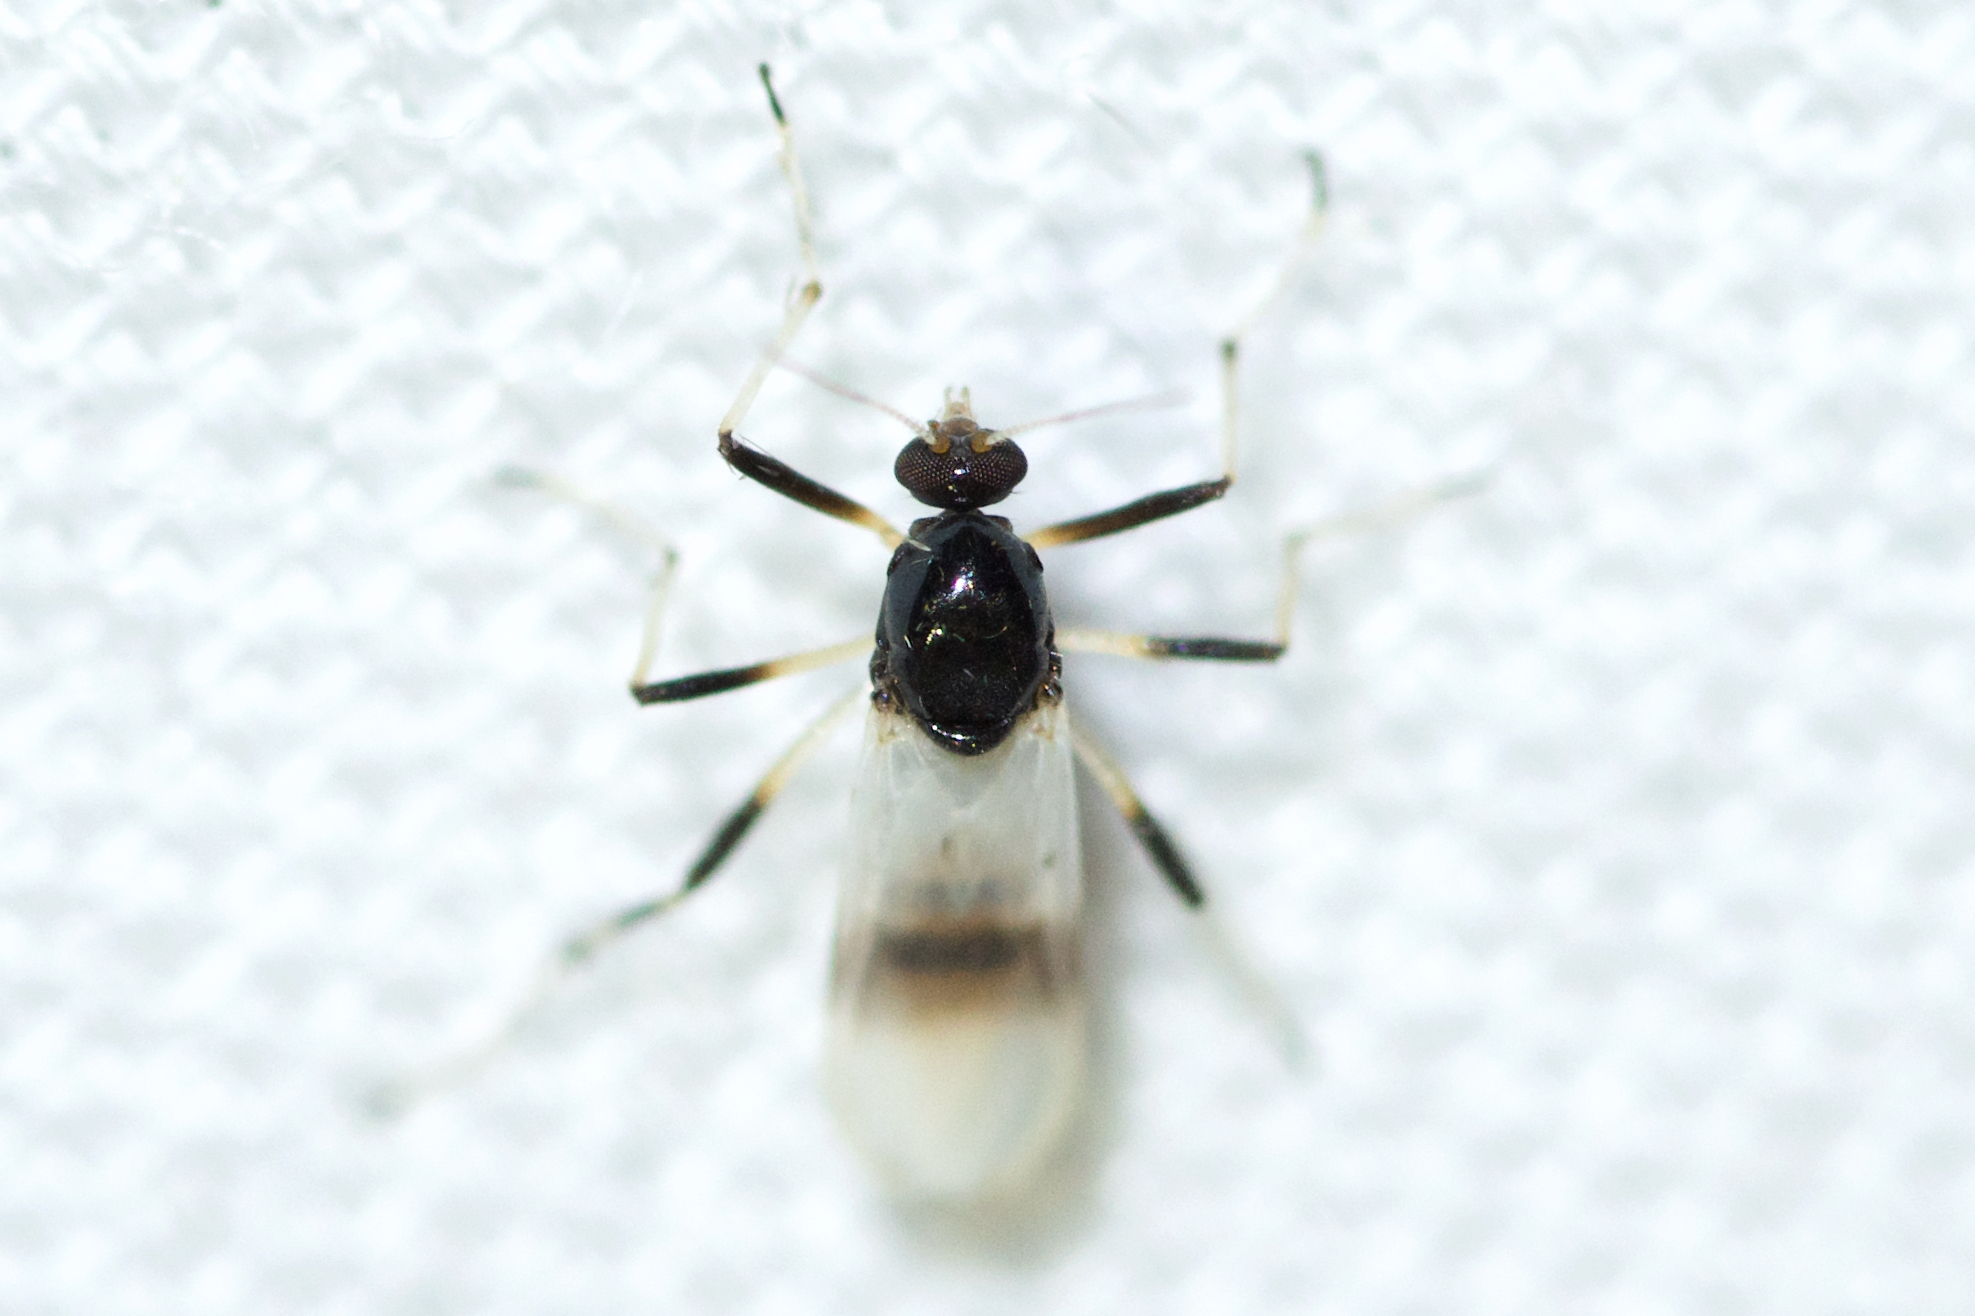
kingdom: Animalia
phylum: Arthropoda
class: Insecta
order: Diptera
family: Ceratopogonidae
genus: Probezzia
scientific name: Probezzia albitibia
